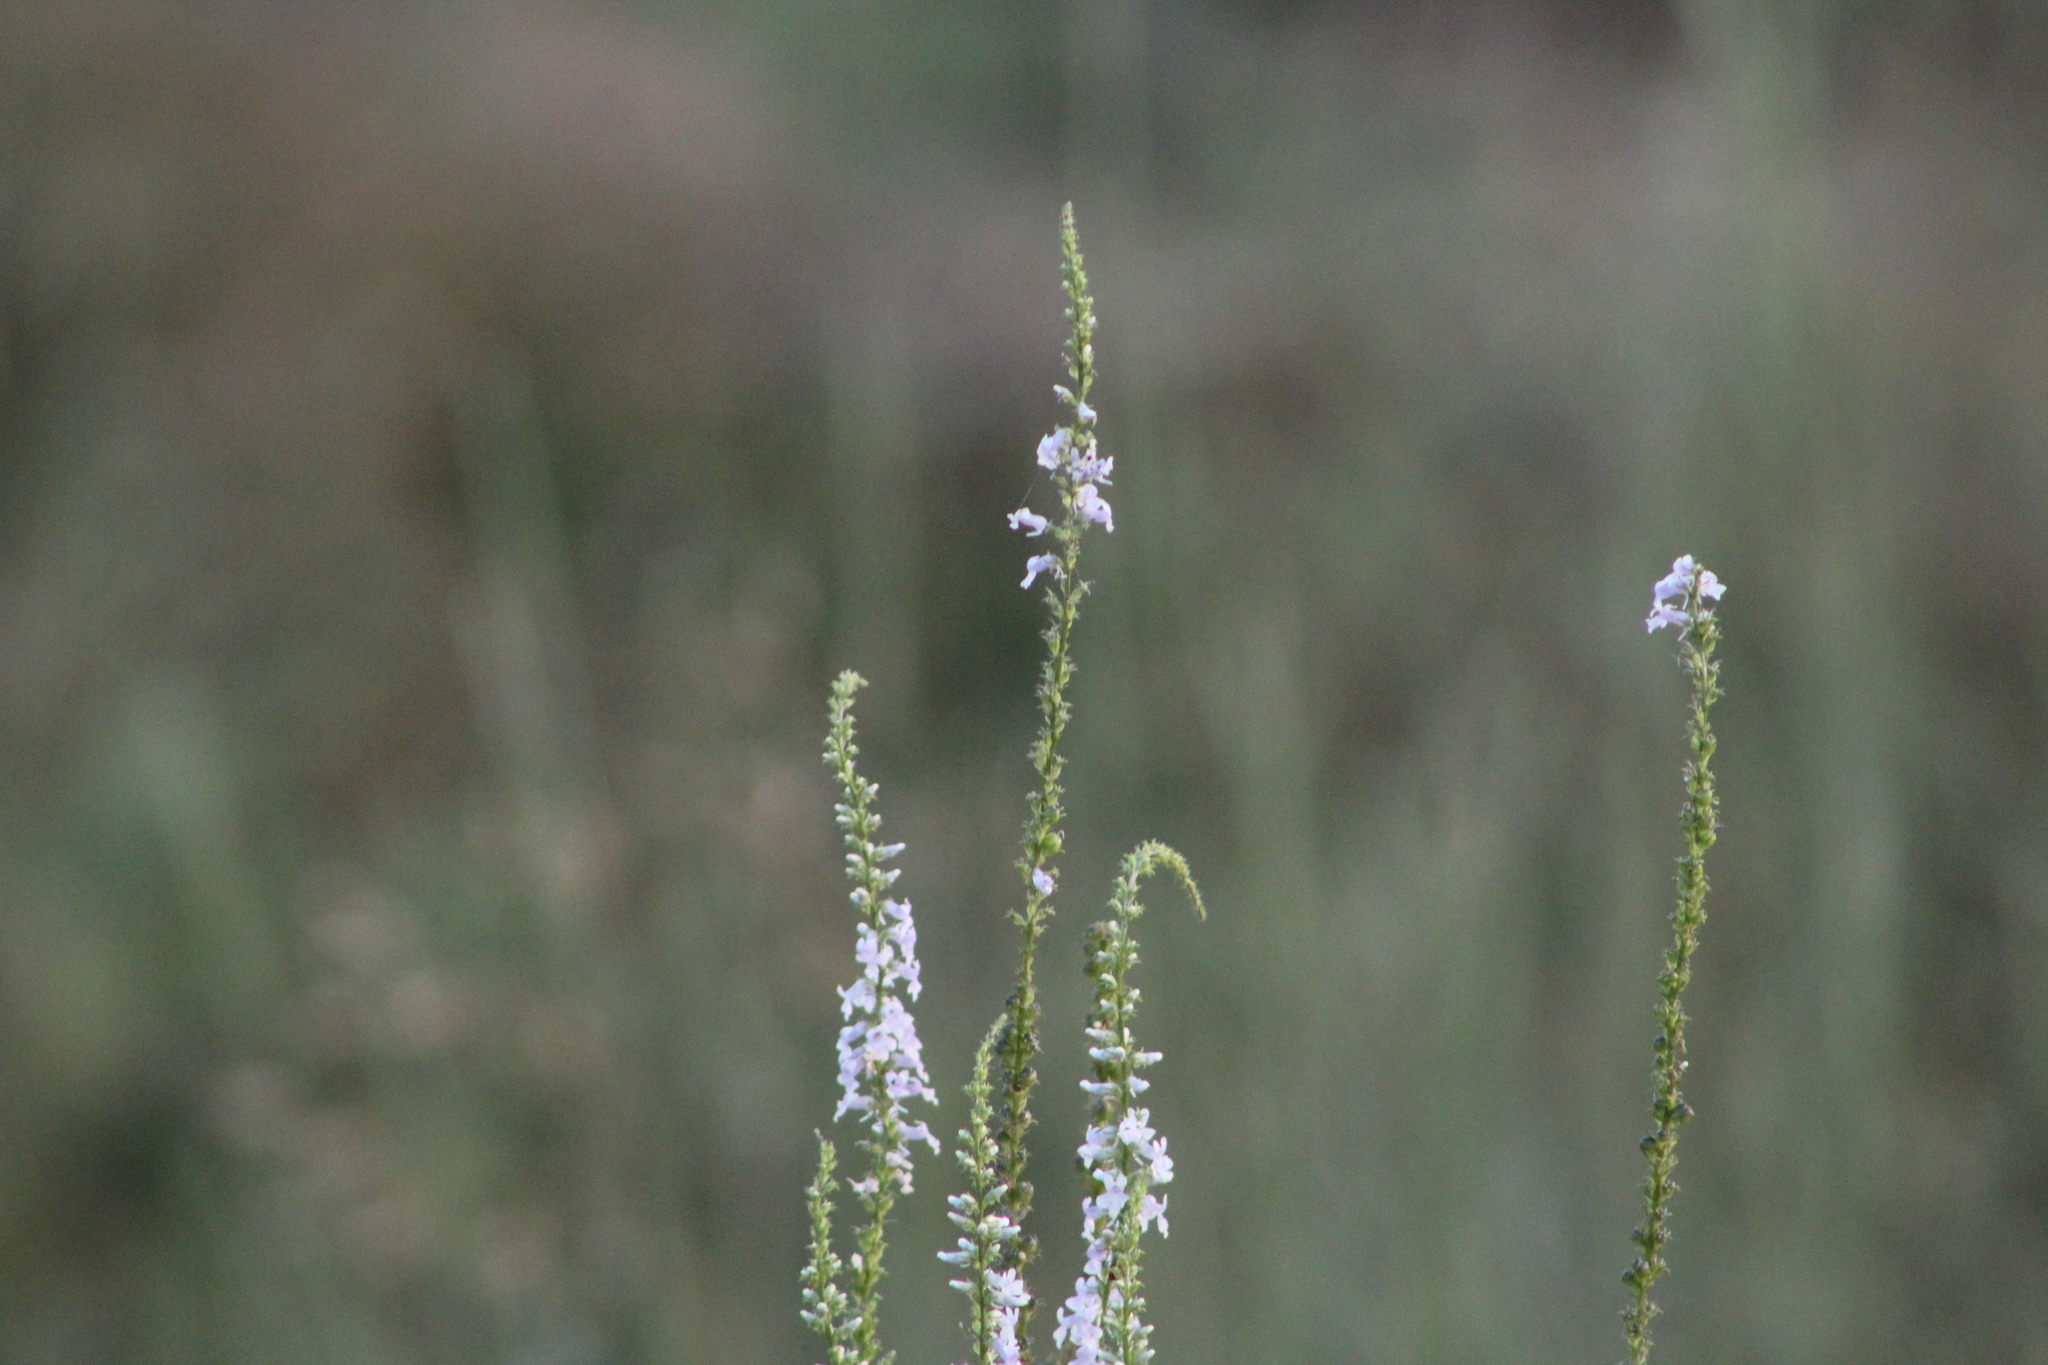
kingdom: Plantae
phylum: Tracheophyta
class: Magnoliopsida
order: Lamiales
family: Plantaginaceae
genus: Anarrhinum
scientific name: Anarrhinum bellidifolium
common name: Daisy-leaved toadflax
